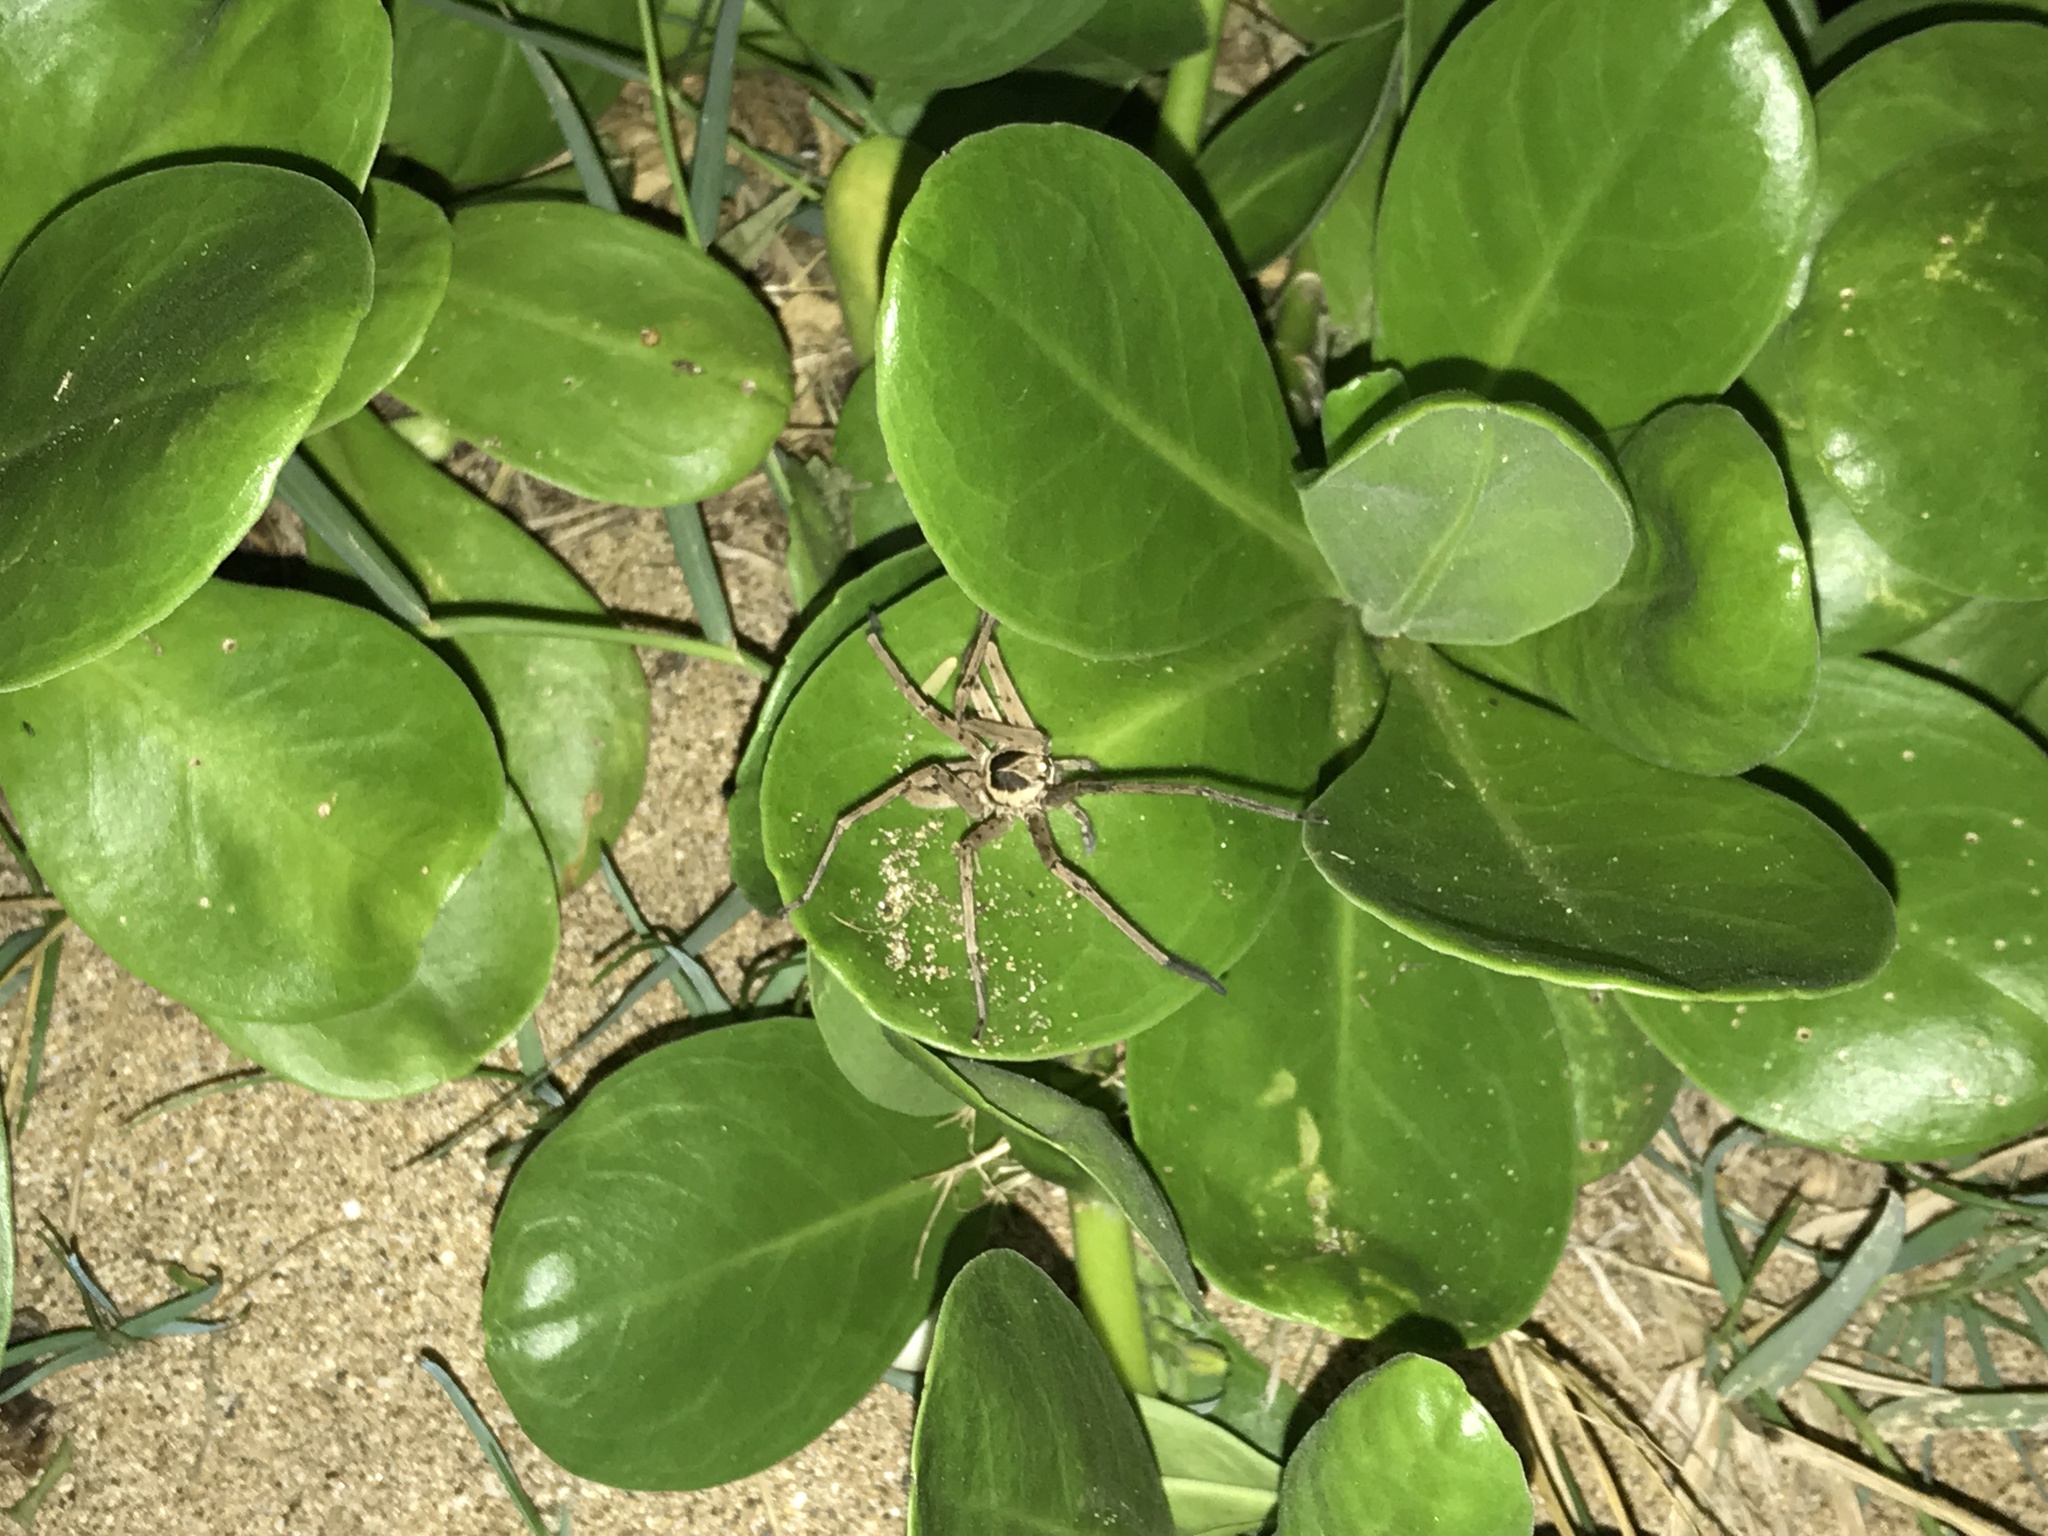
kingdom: Animalia
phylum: Arthropoda
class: Arachnida
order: Araneae
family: Sparassidae
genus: Heteropoda
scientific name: Heteropoda venatoria
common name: Huntsman spider
